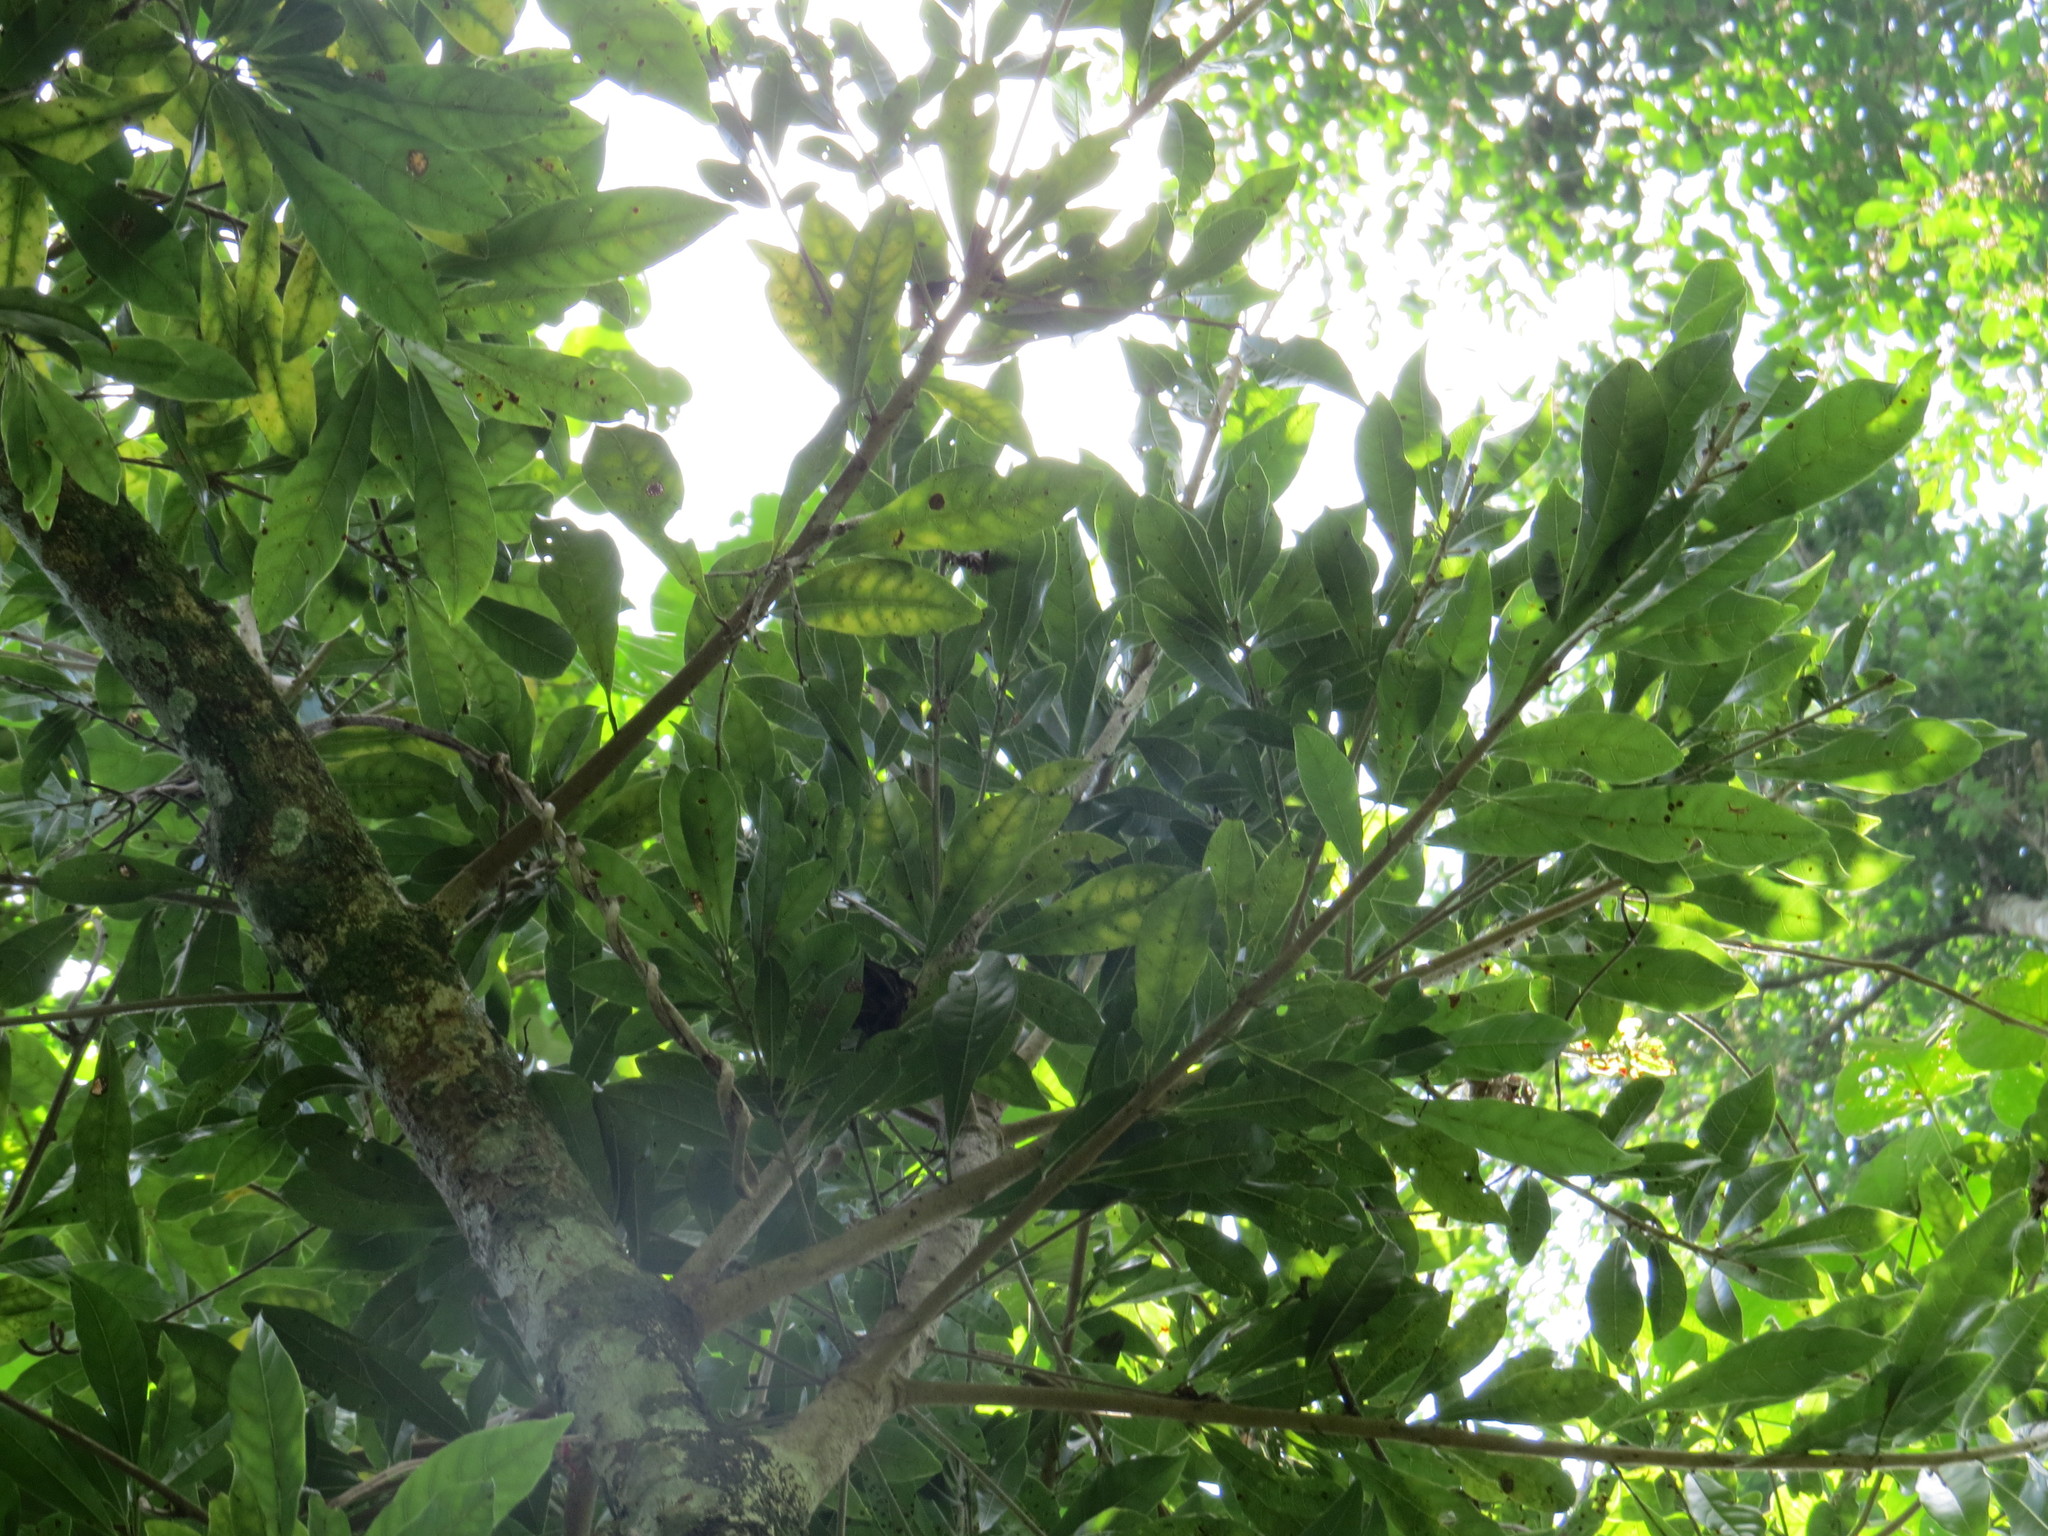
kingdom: Plantae
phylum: Tracheophyta
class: Magnoliopsida
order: Ericales
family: Sapotaceae
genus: Pradosia
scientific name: Pradosia lactescens
